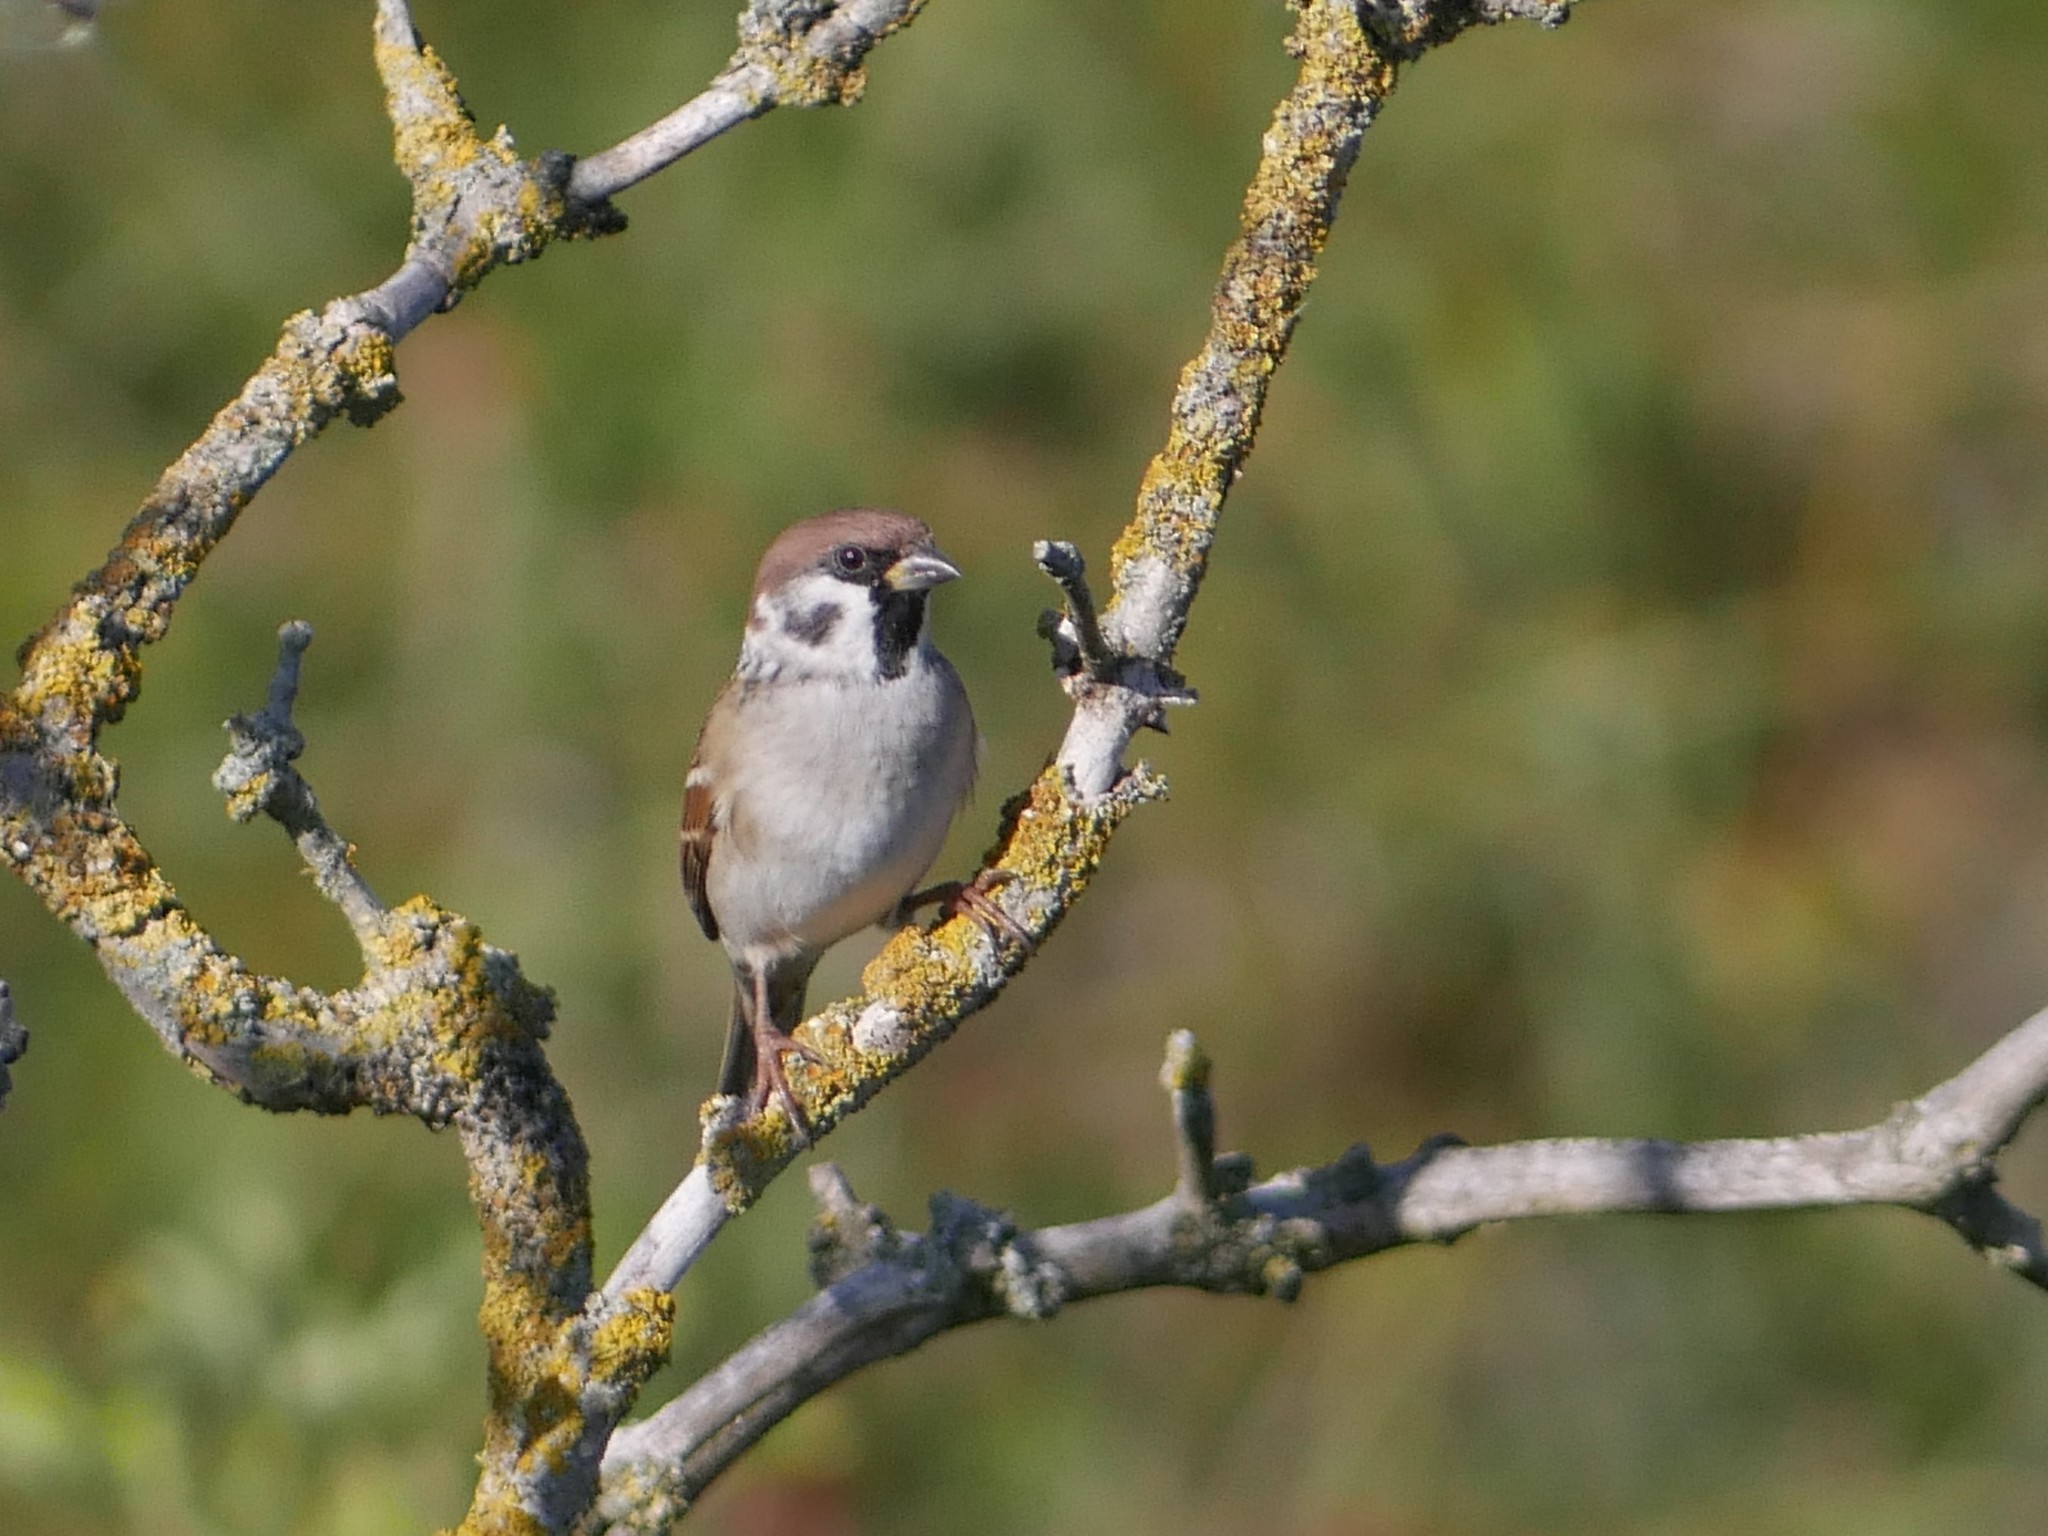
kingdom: Animalia
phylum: Chordata
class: Aves
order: Passeriformes
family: Passeridae
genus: Passer
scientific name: Passer montanus
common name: Eurasian tree sparrow
